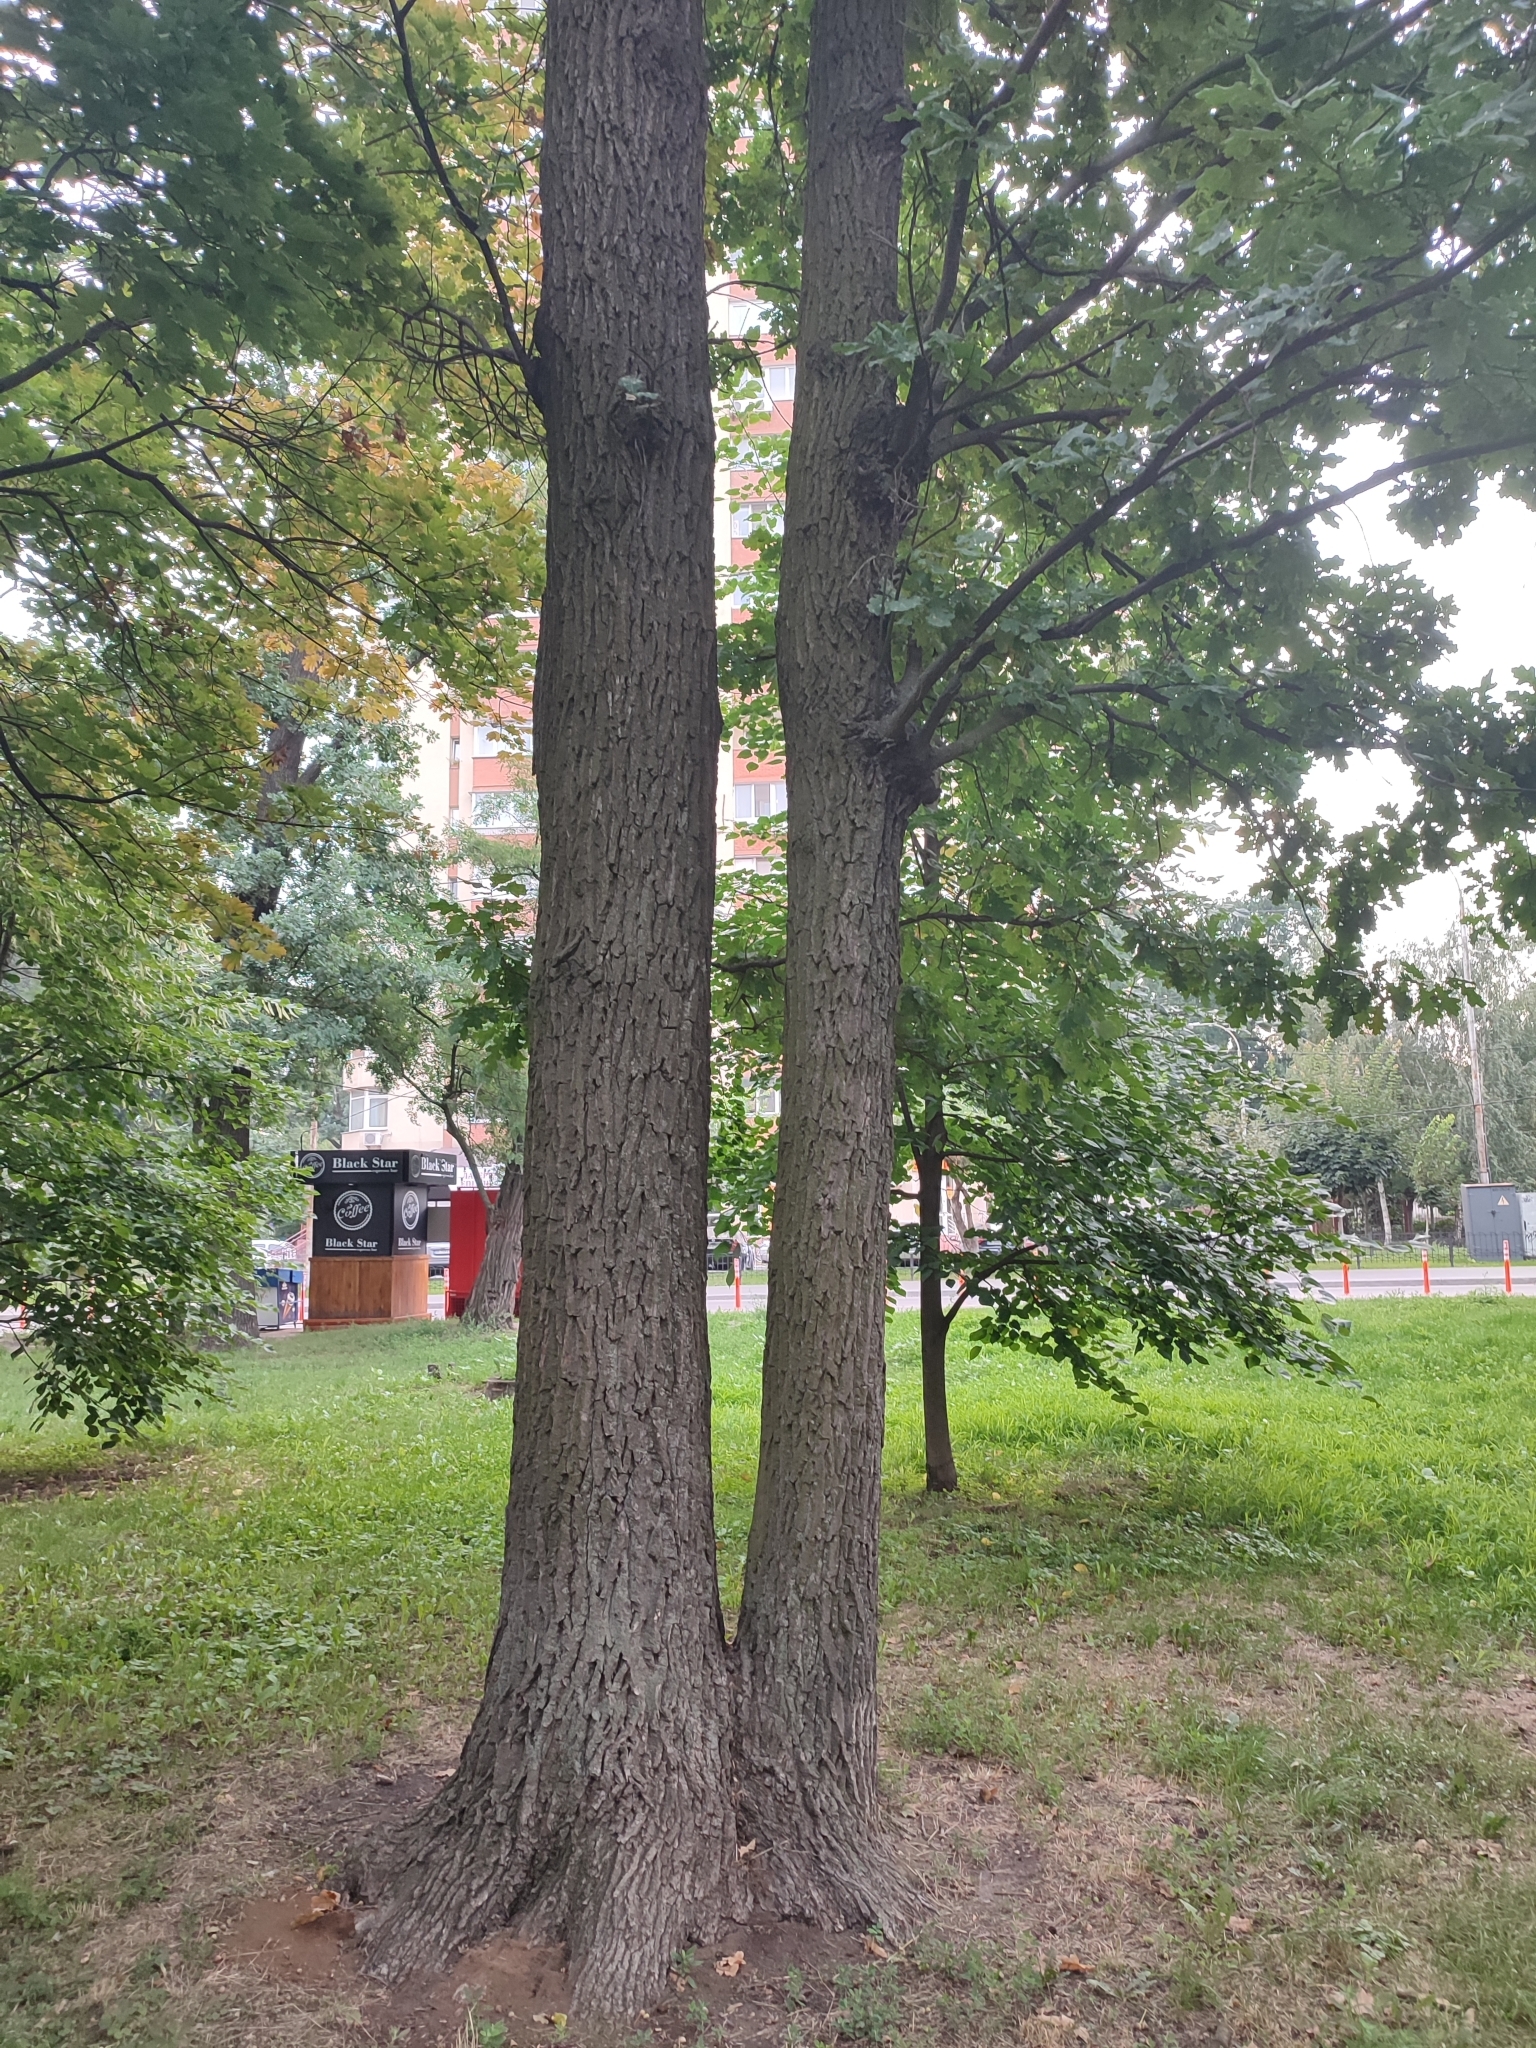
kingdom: Plantae
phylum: Tracheophyta
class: Magnoliopsida
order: Fagales
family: Fagaceae
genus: Quercus
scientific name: Quercus robur
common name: Pedunculate oak
